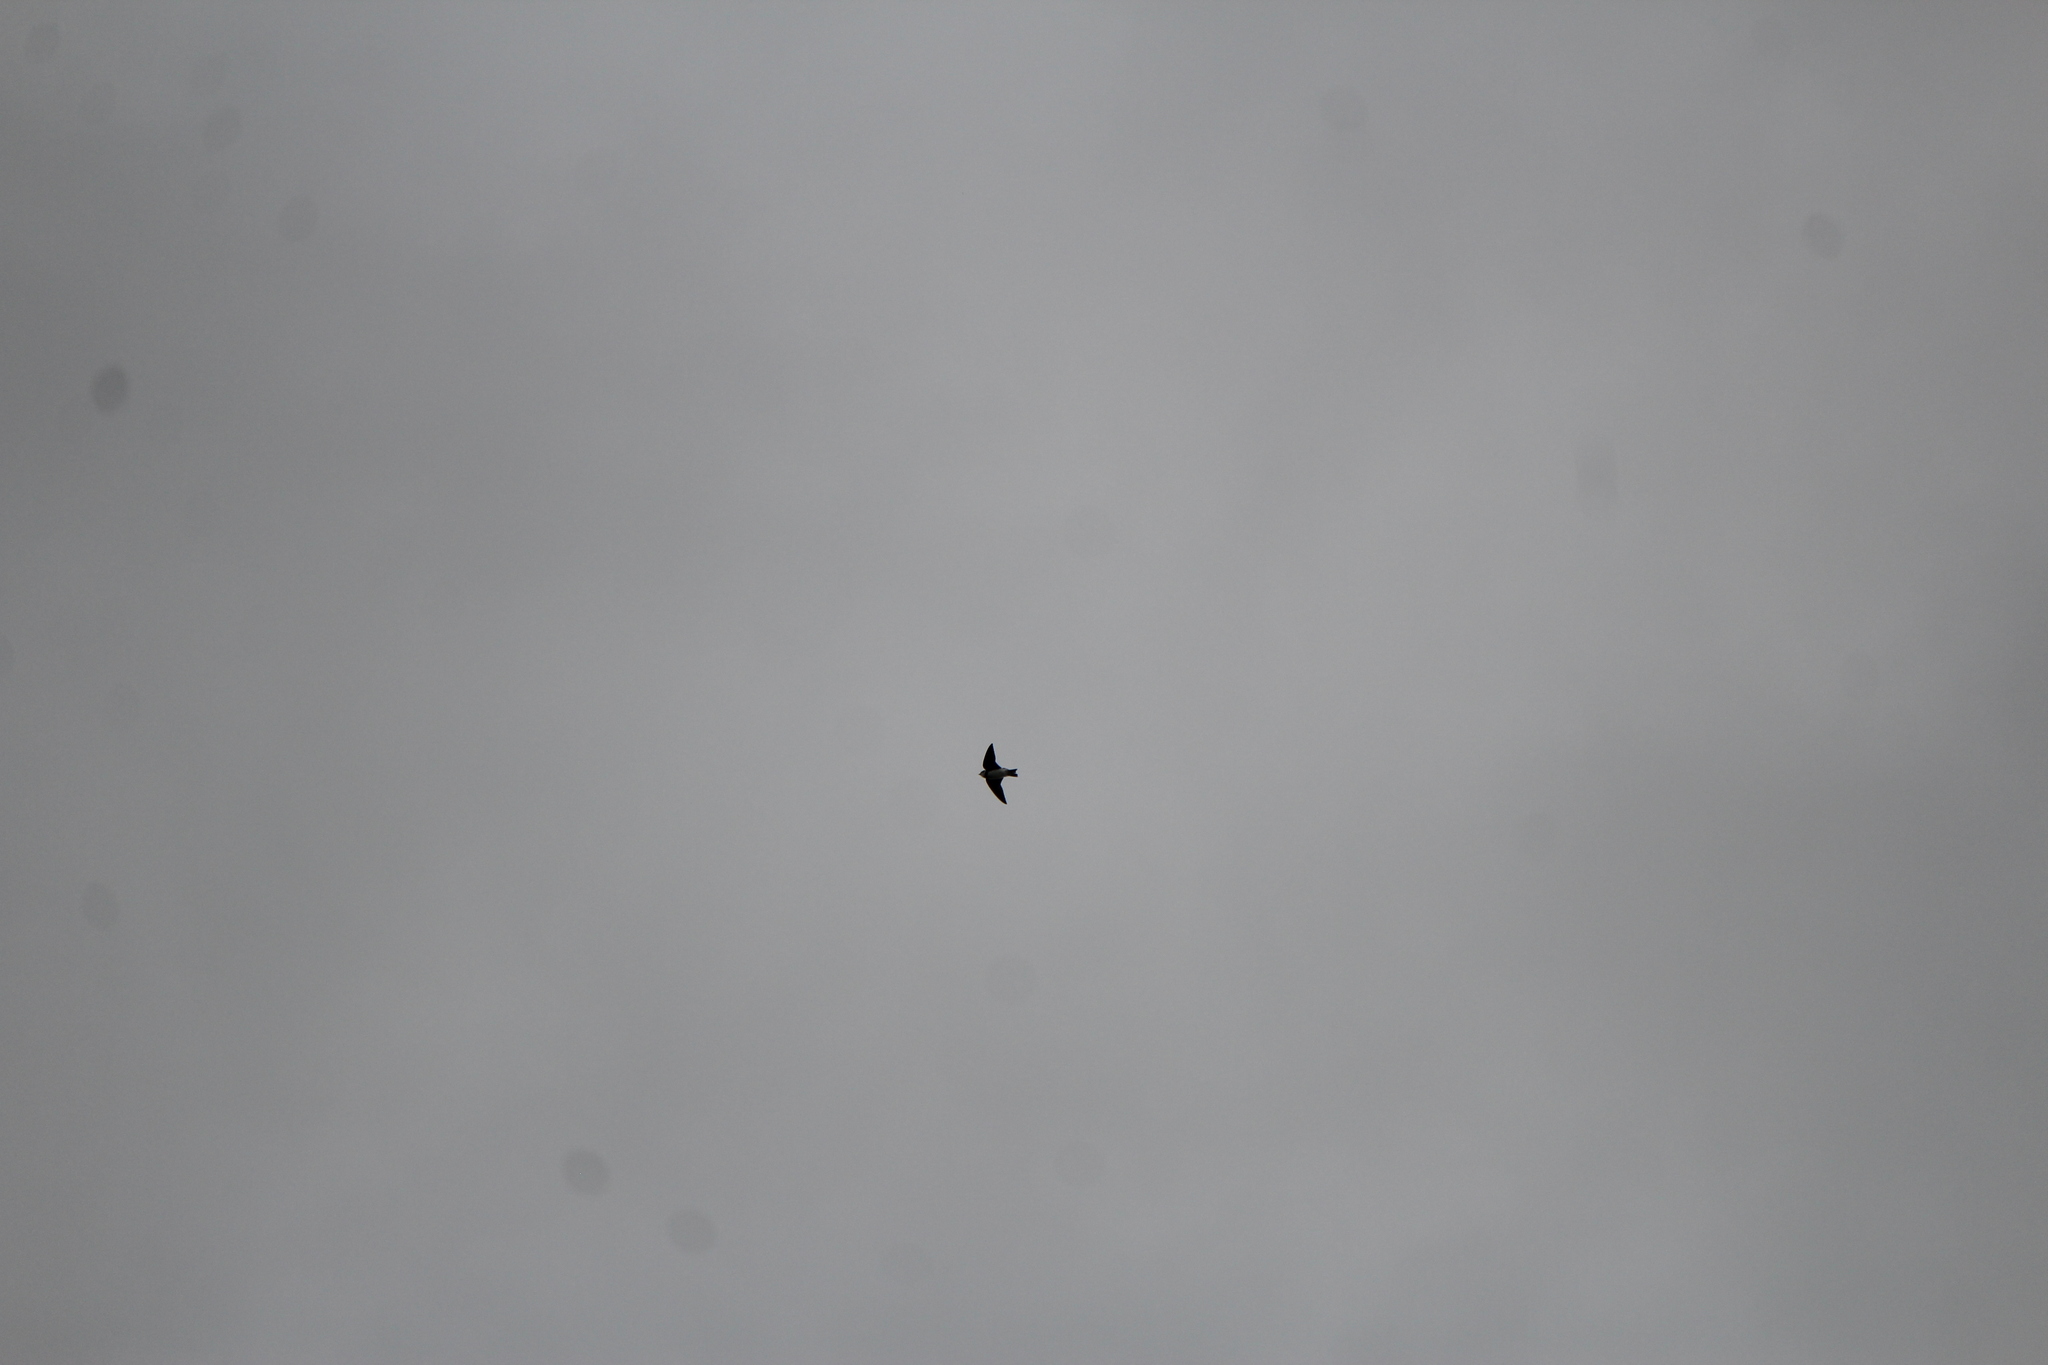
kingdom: Animalia
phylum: Chordata
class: Aves
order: Passeriformes
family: Hirundinidae
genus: Riparia
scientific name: Riparia riparia
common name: Sand martin
